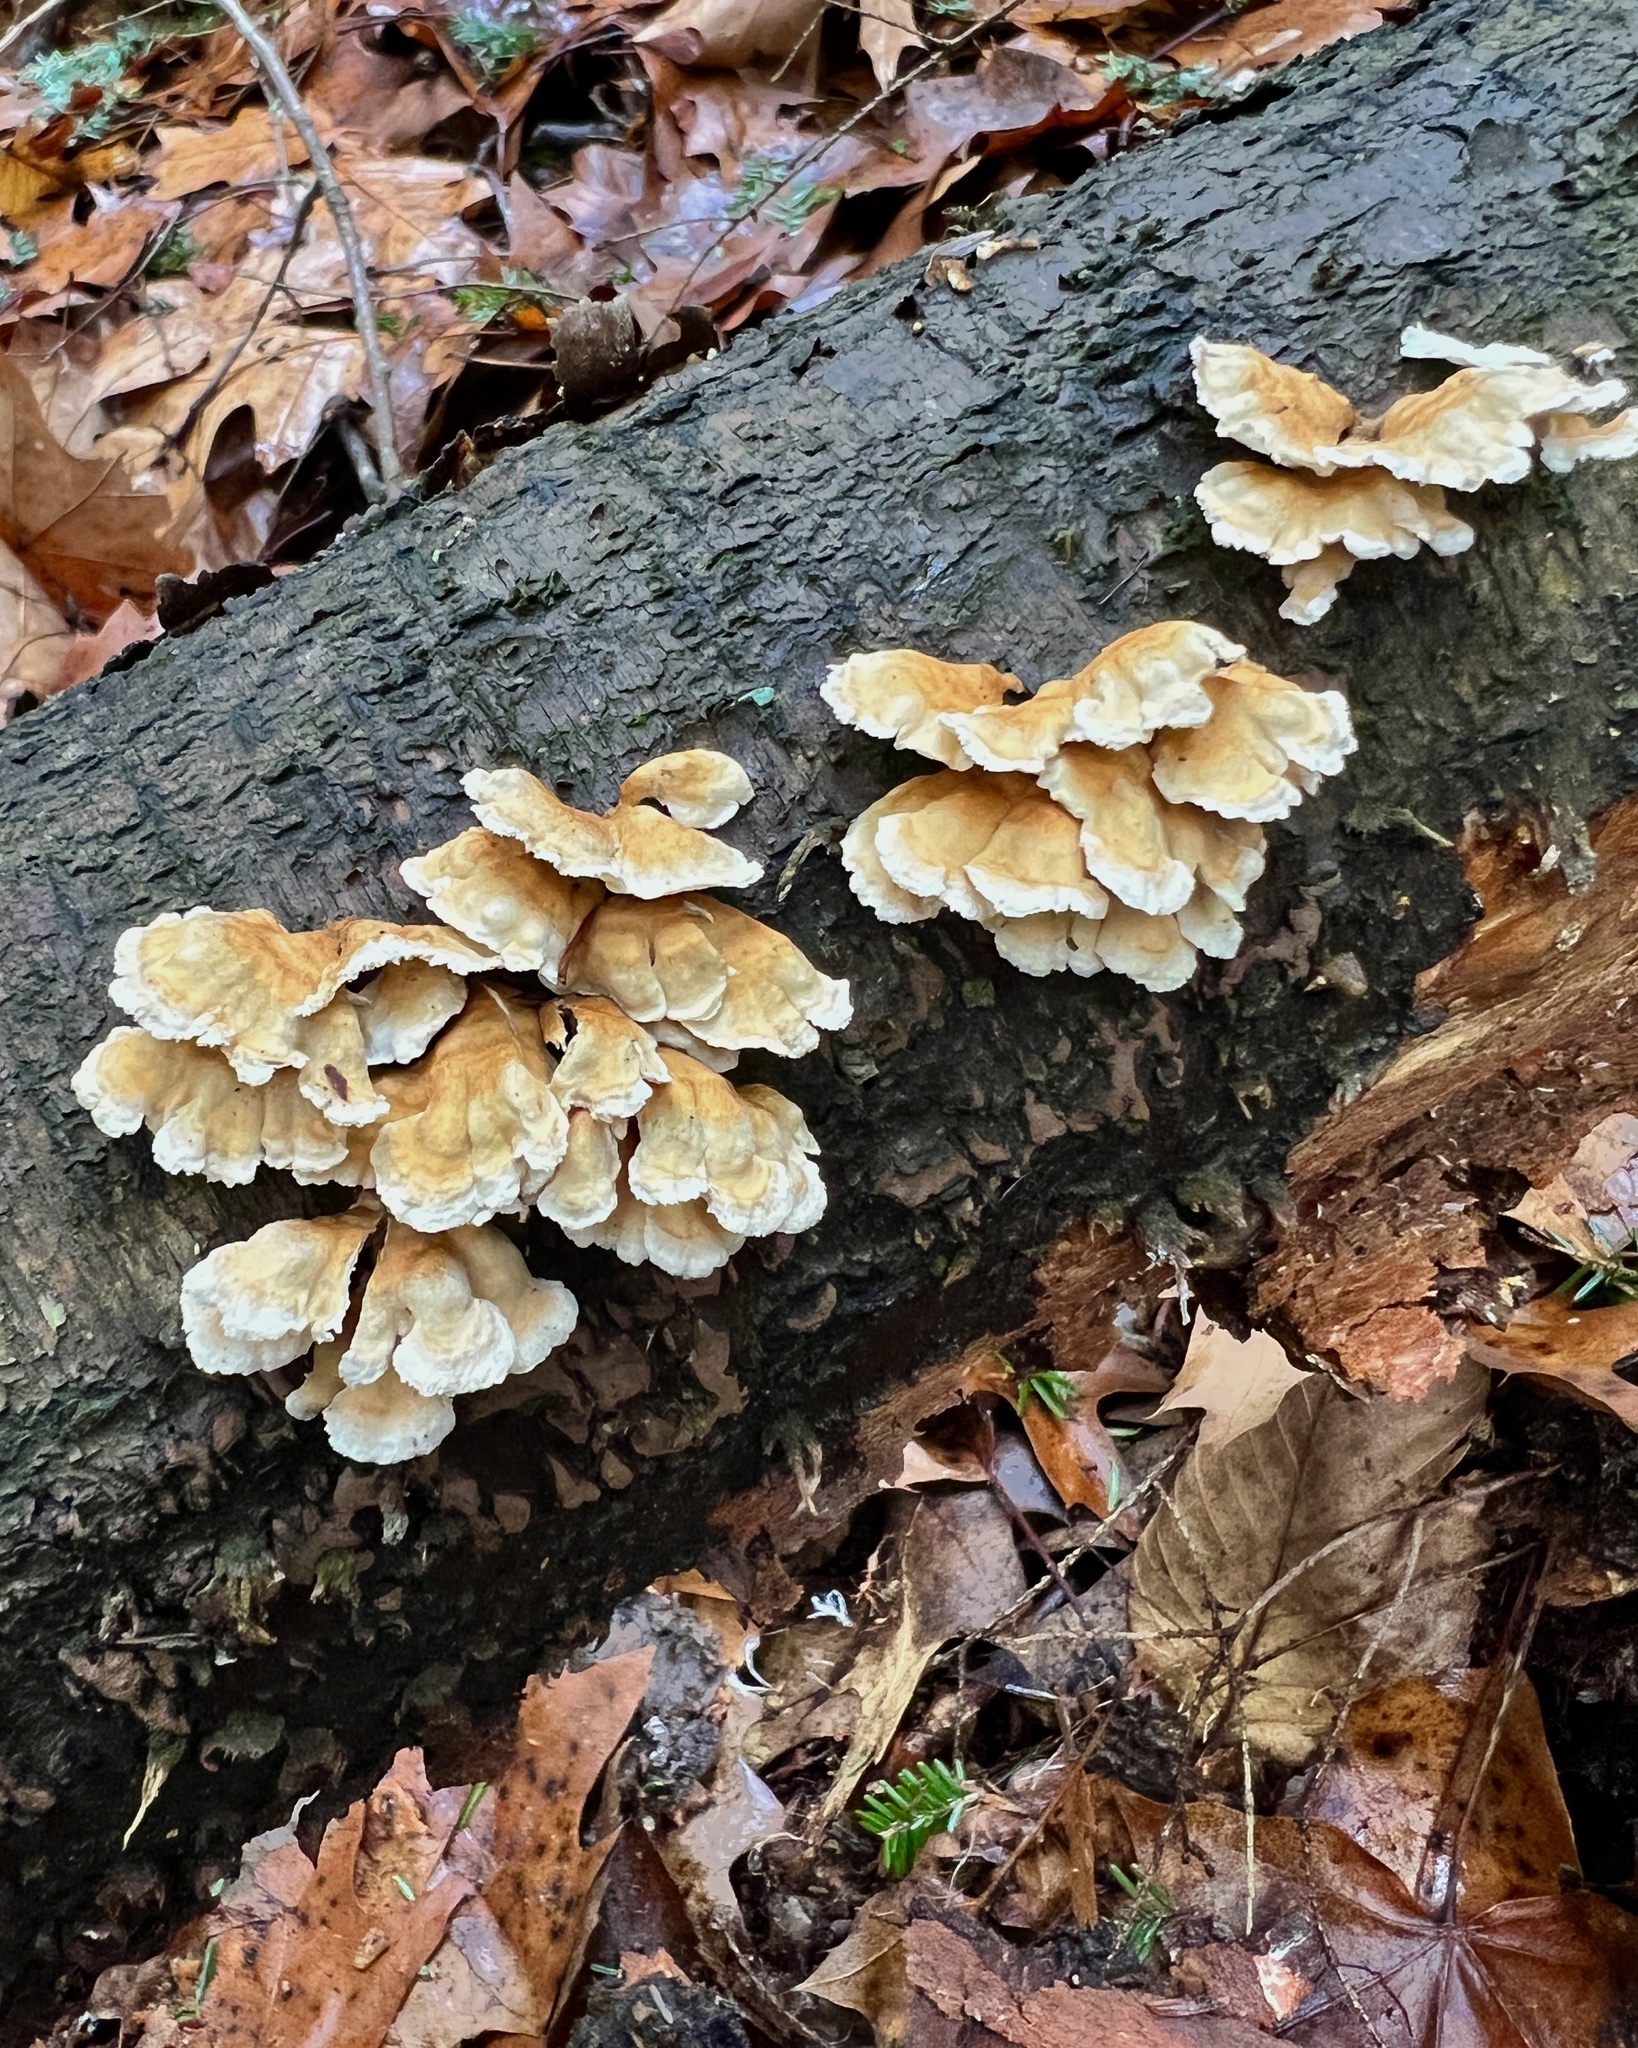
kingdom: Fungi
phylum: Basidiomycota
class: Agaricomycetes
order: Amylocorticiales
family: Amylocorticiaceae
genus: Plicaturopsis
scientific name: Plicaturopsis crispa
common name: Crimped gill
